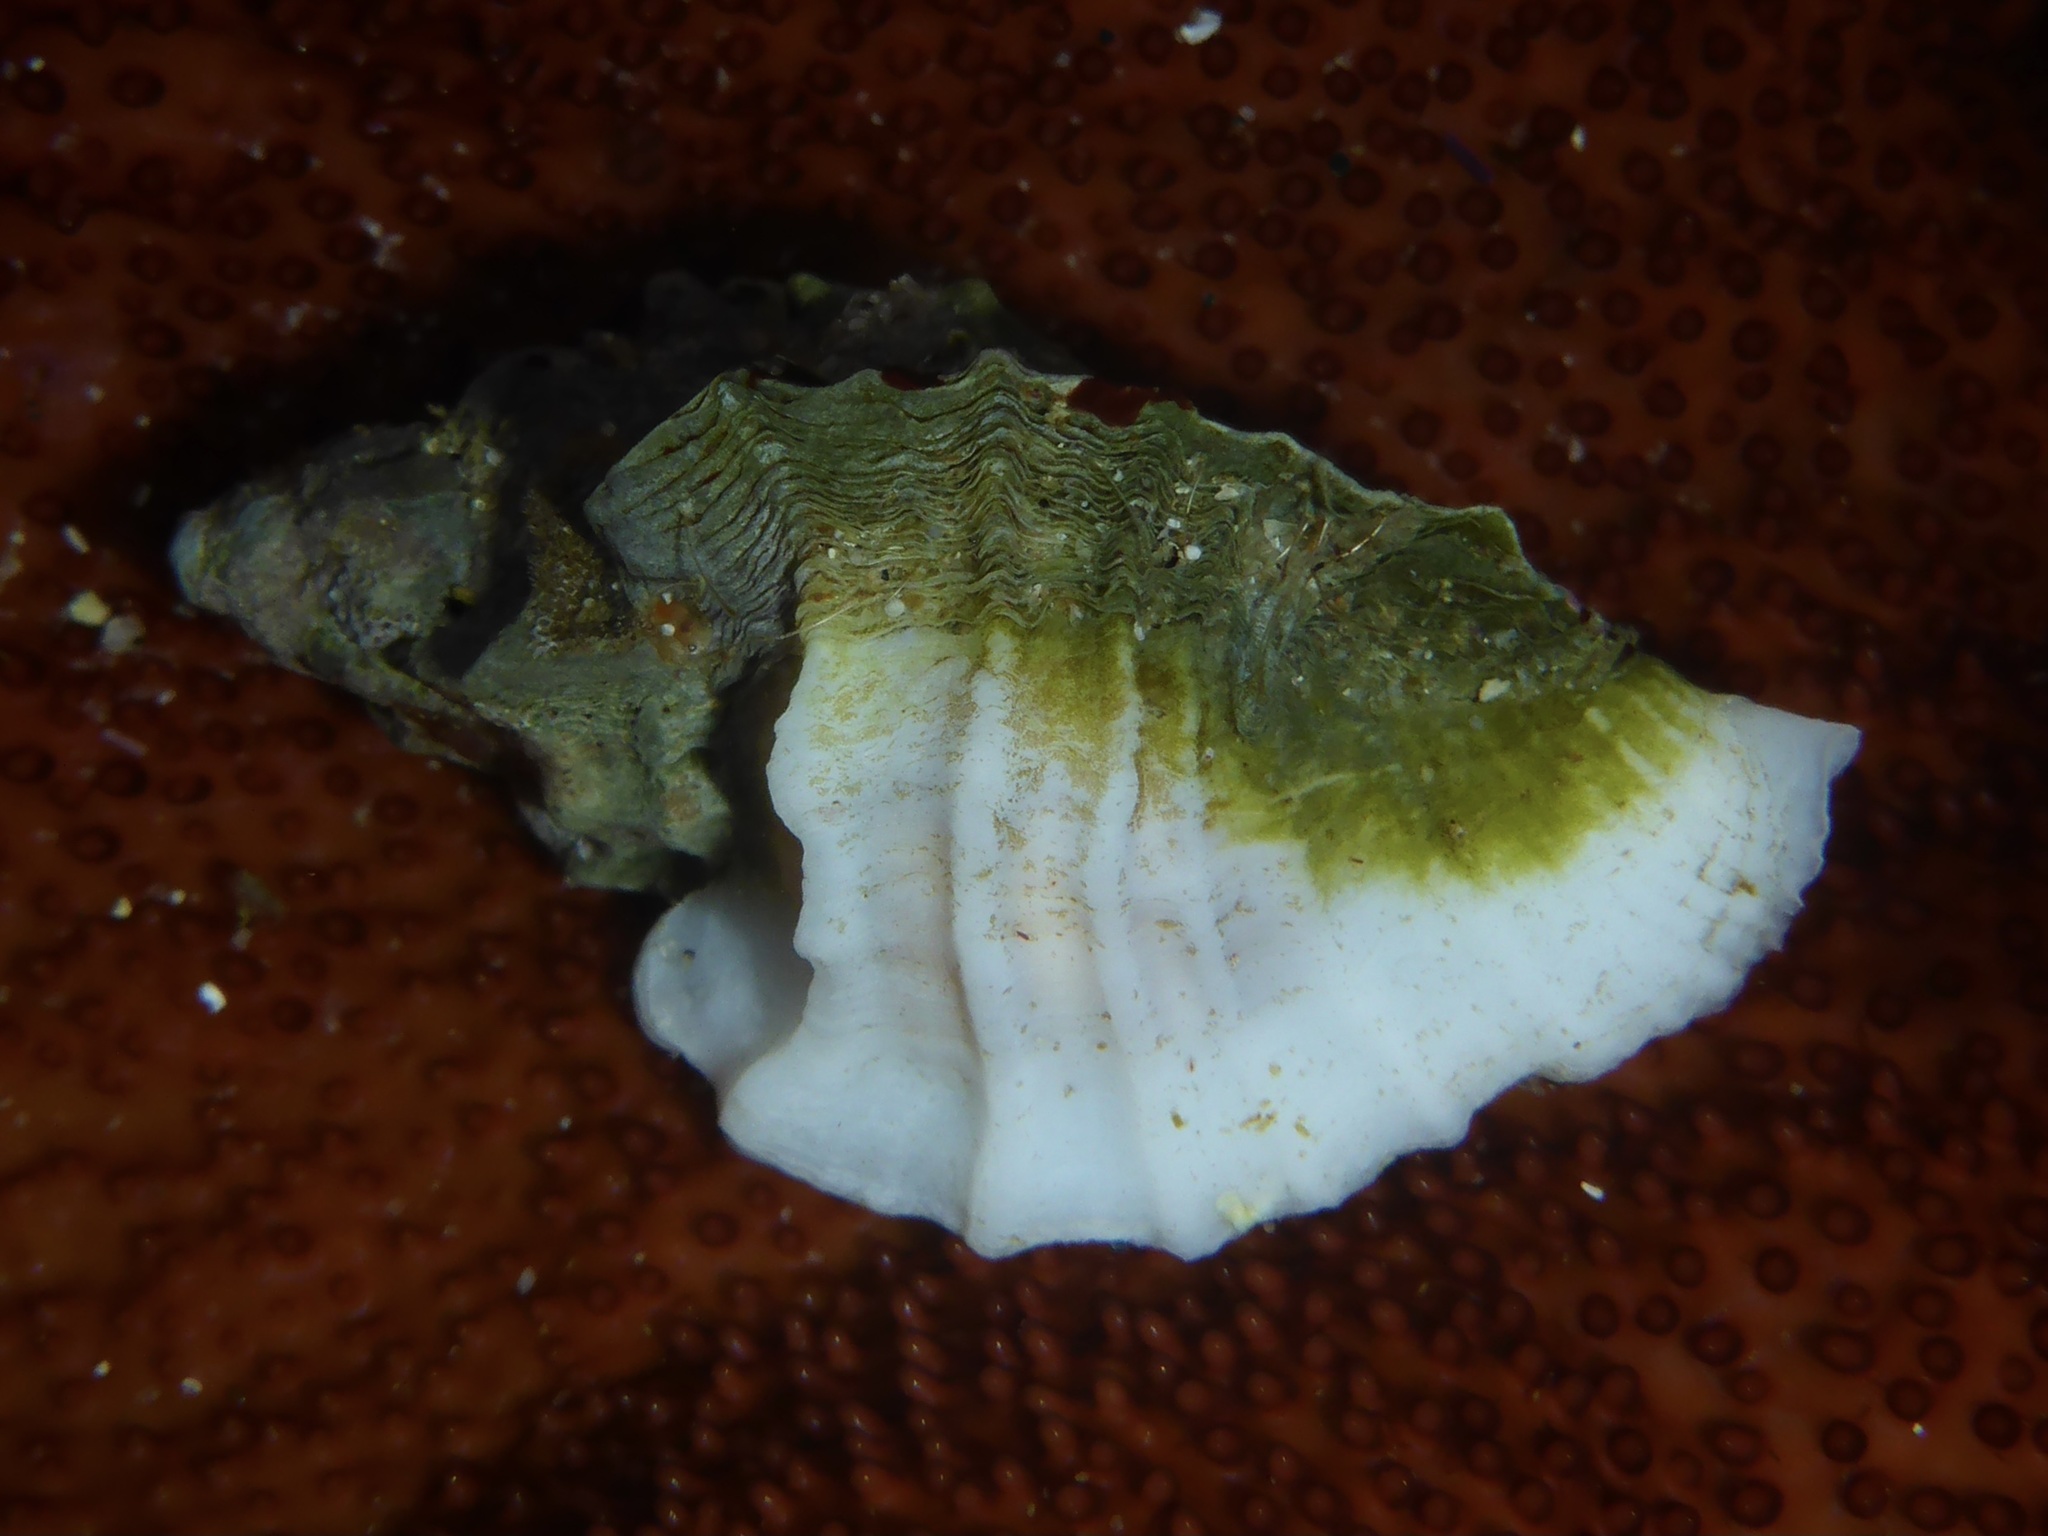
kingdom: Animalia
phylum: Mollusca
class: Gastropoda
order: Neogastropoda
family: Muricidae
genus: Ceratostoma
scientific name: Ceratostoma foliatum
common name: Foliate thorn purpura
